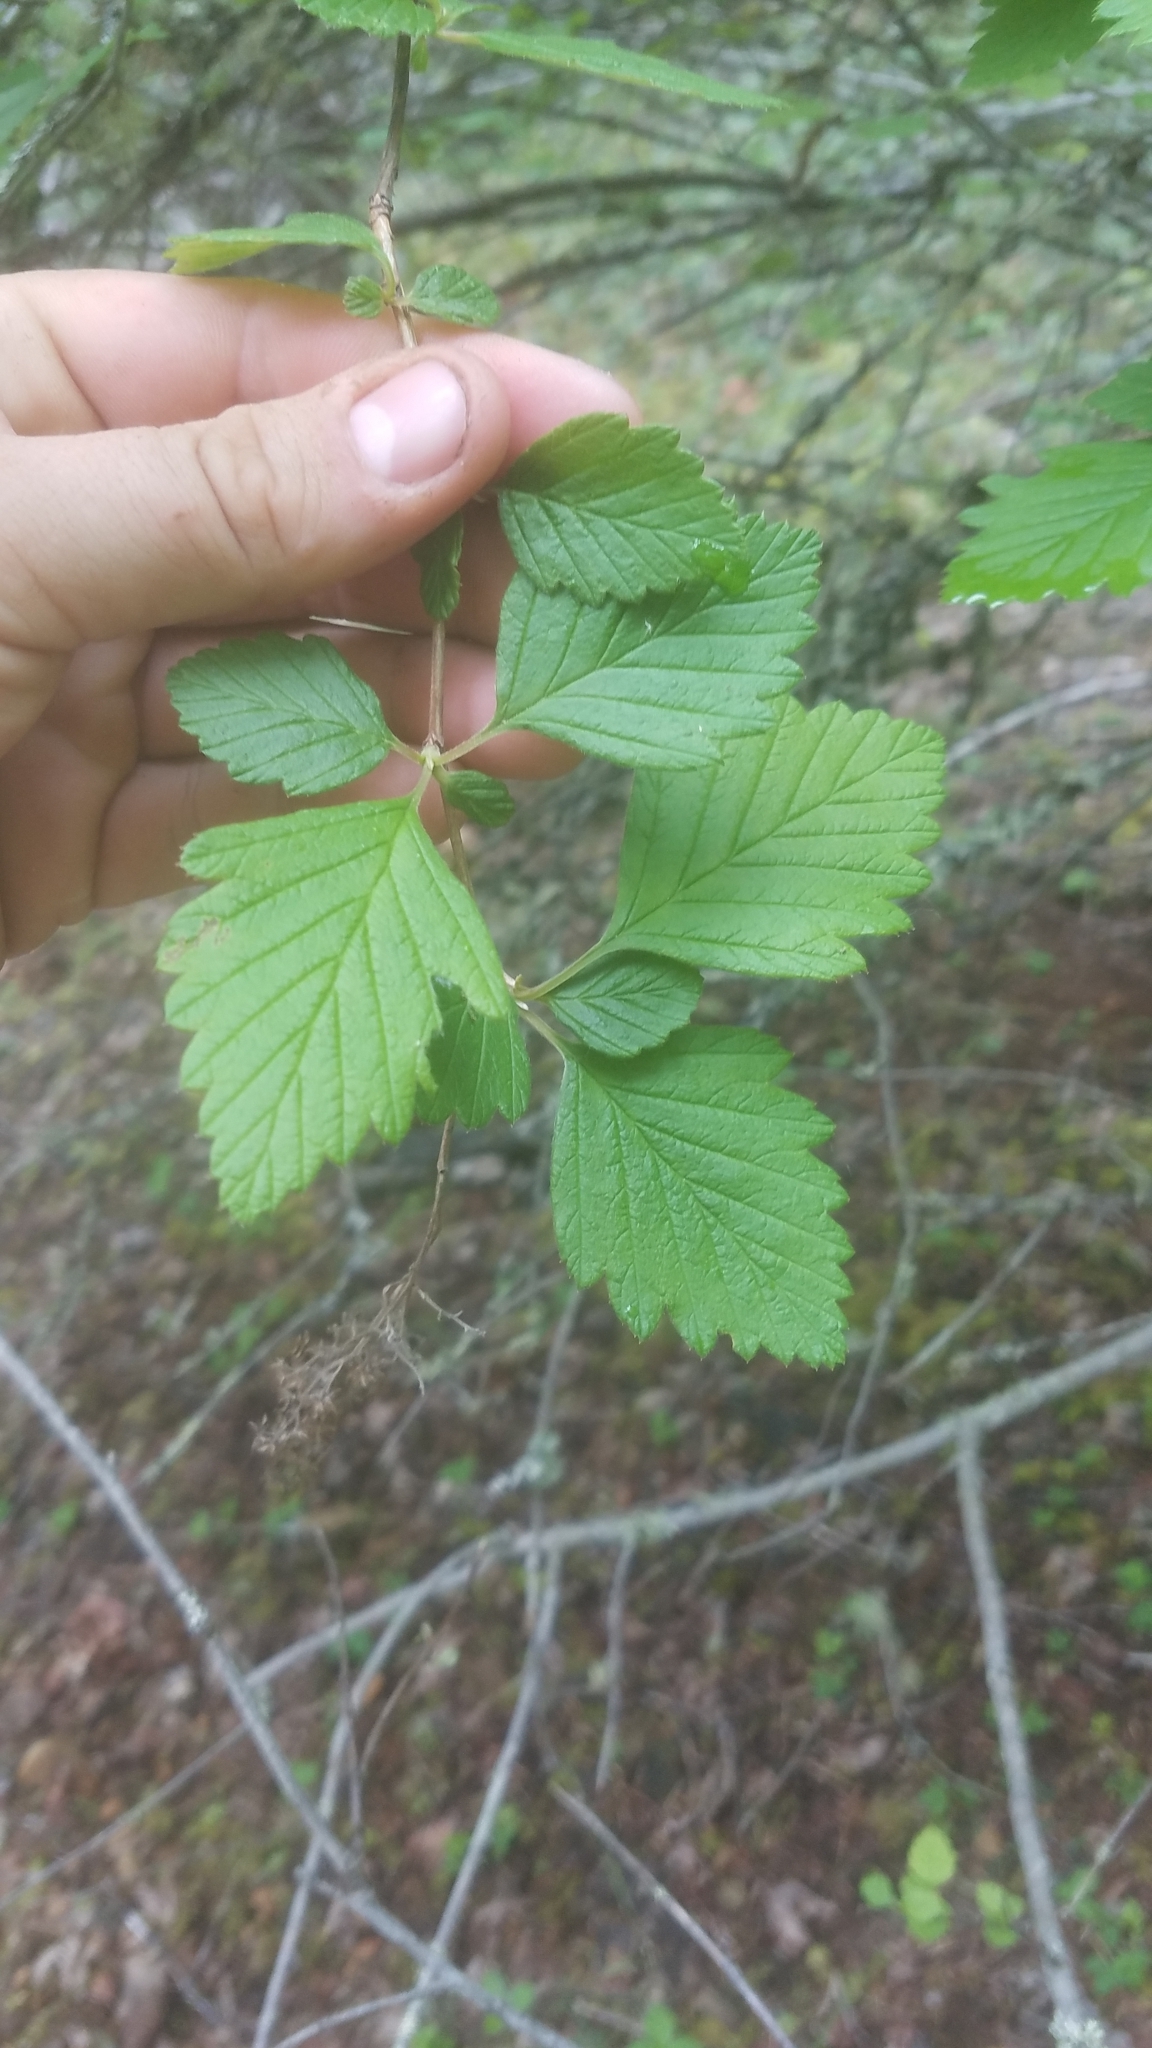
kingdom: Plantae
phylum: Tracheophyta
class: Magnoliopsida
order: Rosales
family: Rosaceae
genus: Holodiscus
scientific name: Holodiscus discolor
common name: Oceanspray
